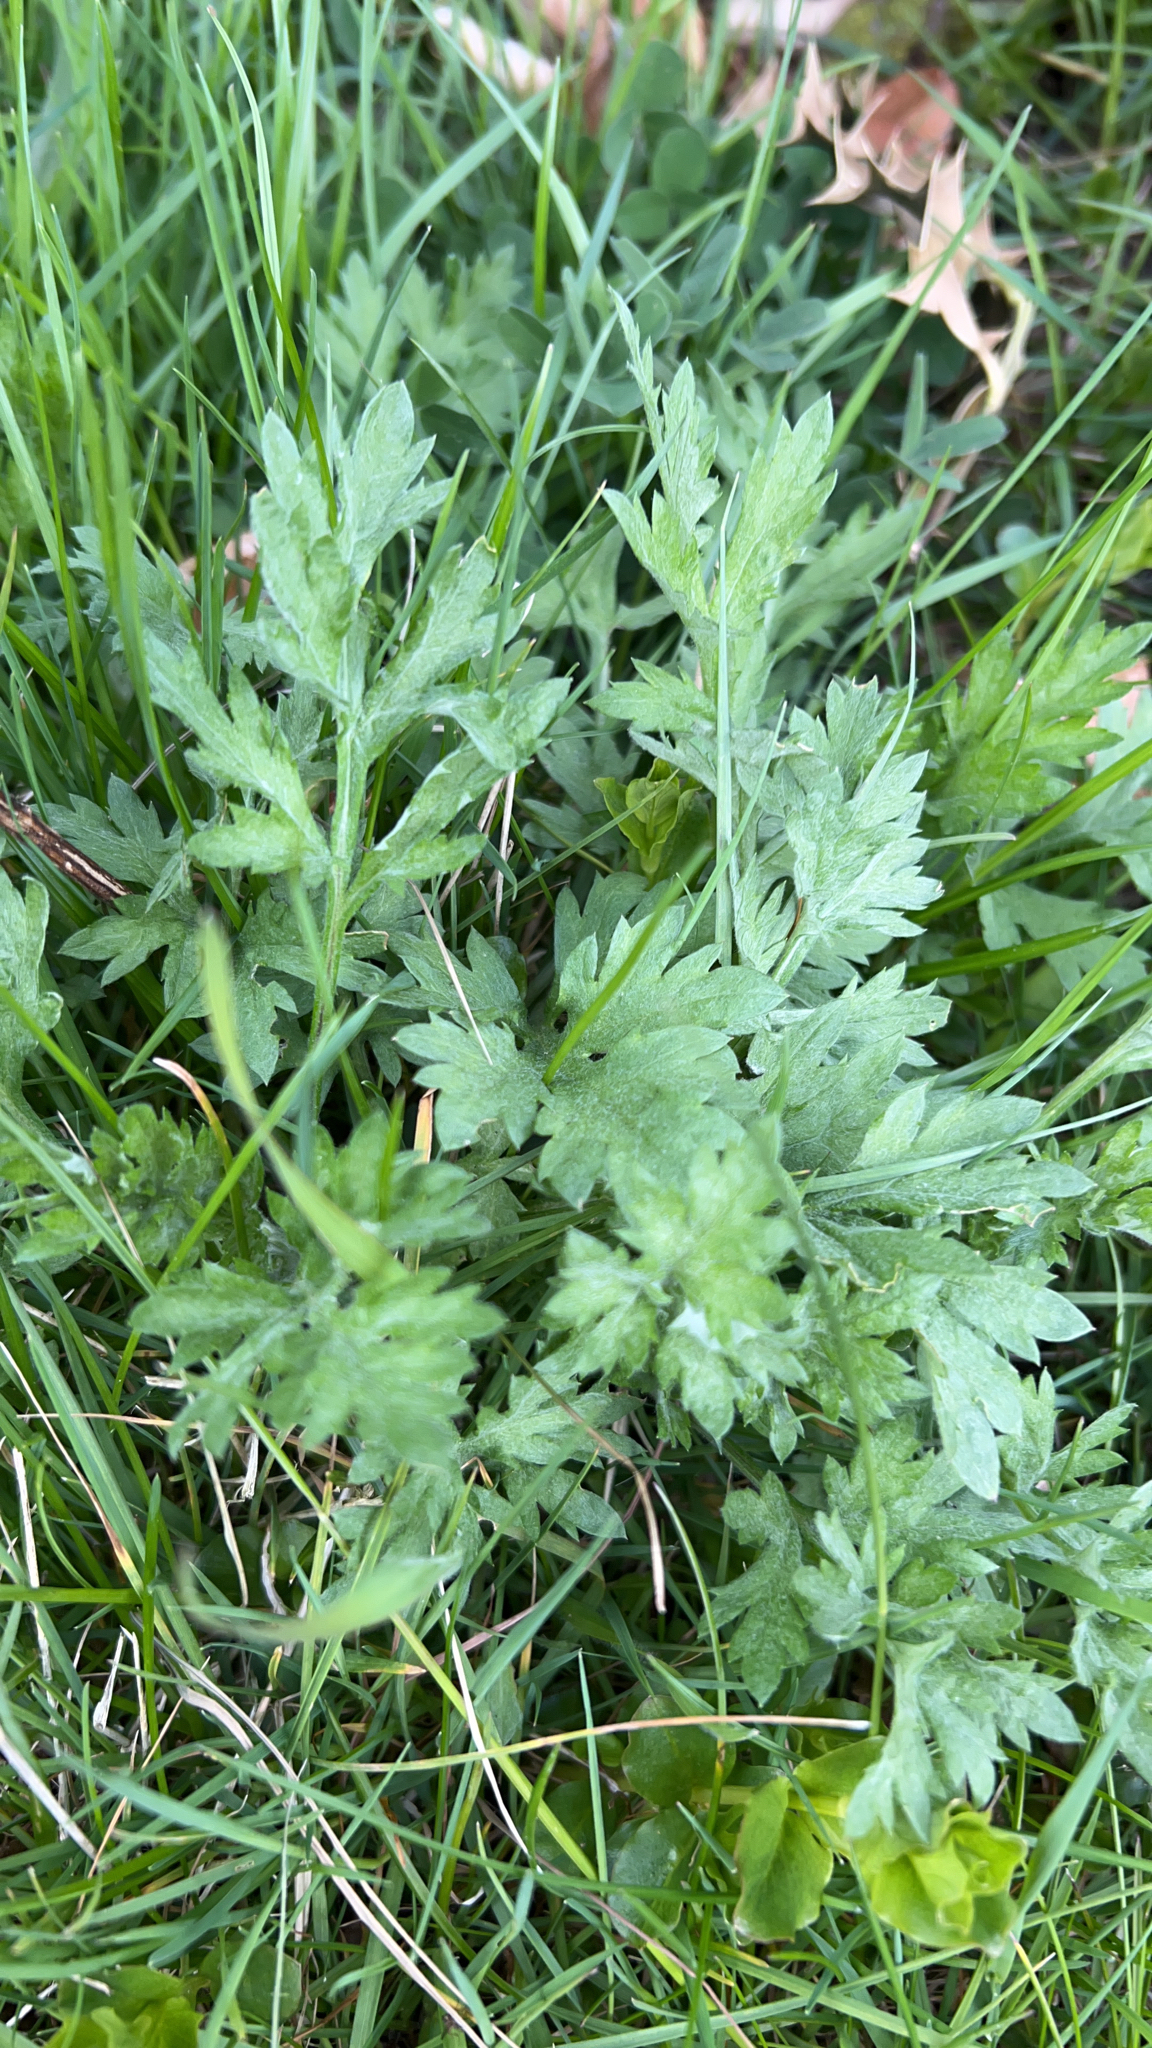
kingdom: Plantae
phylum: Tracheophyta
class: Magnoliopsida
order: Asterales
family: Asteraceae
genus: Artemisia
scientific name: Artemisia vulgaris
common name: Mugwort
